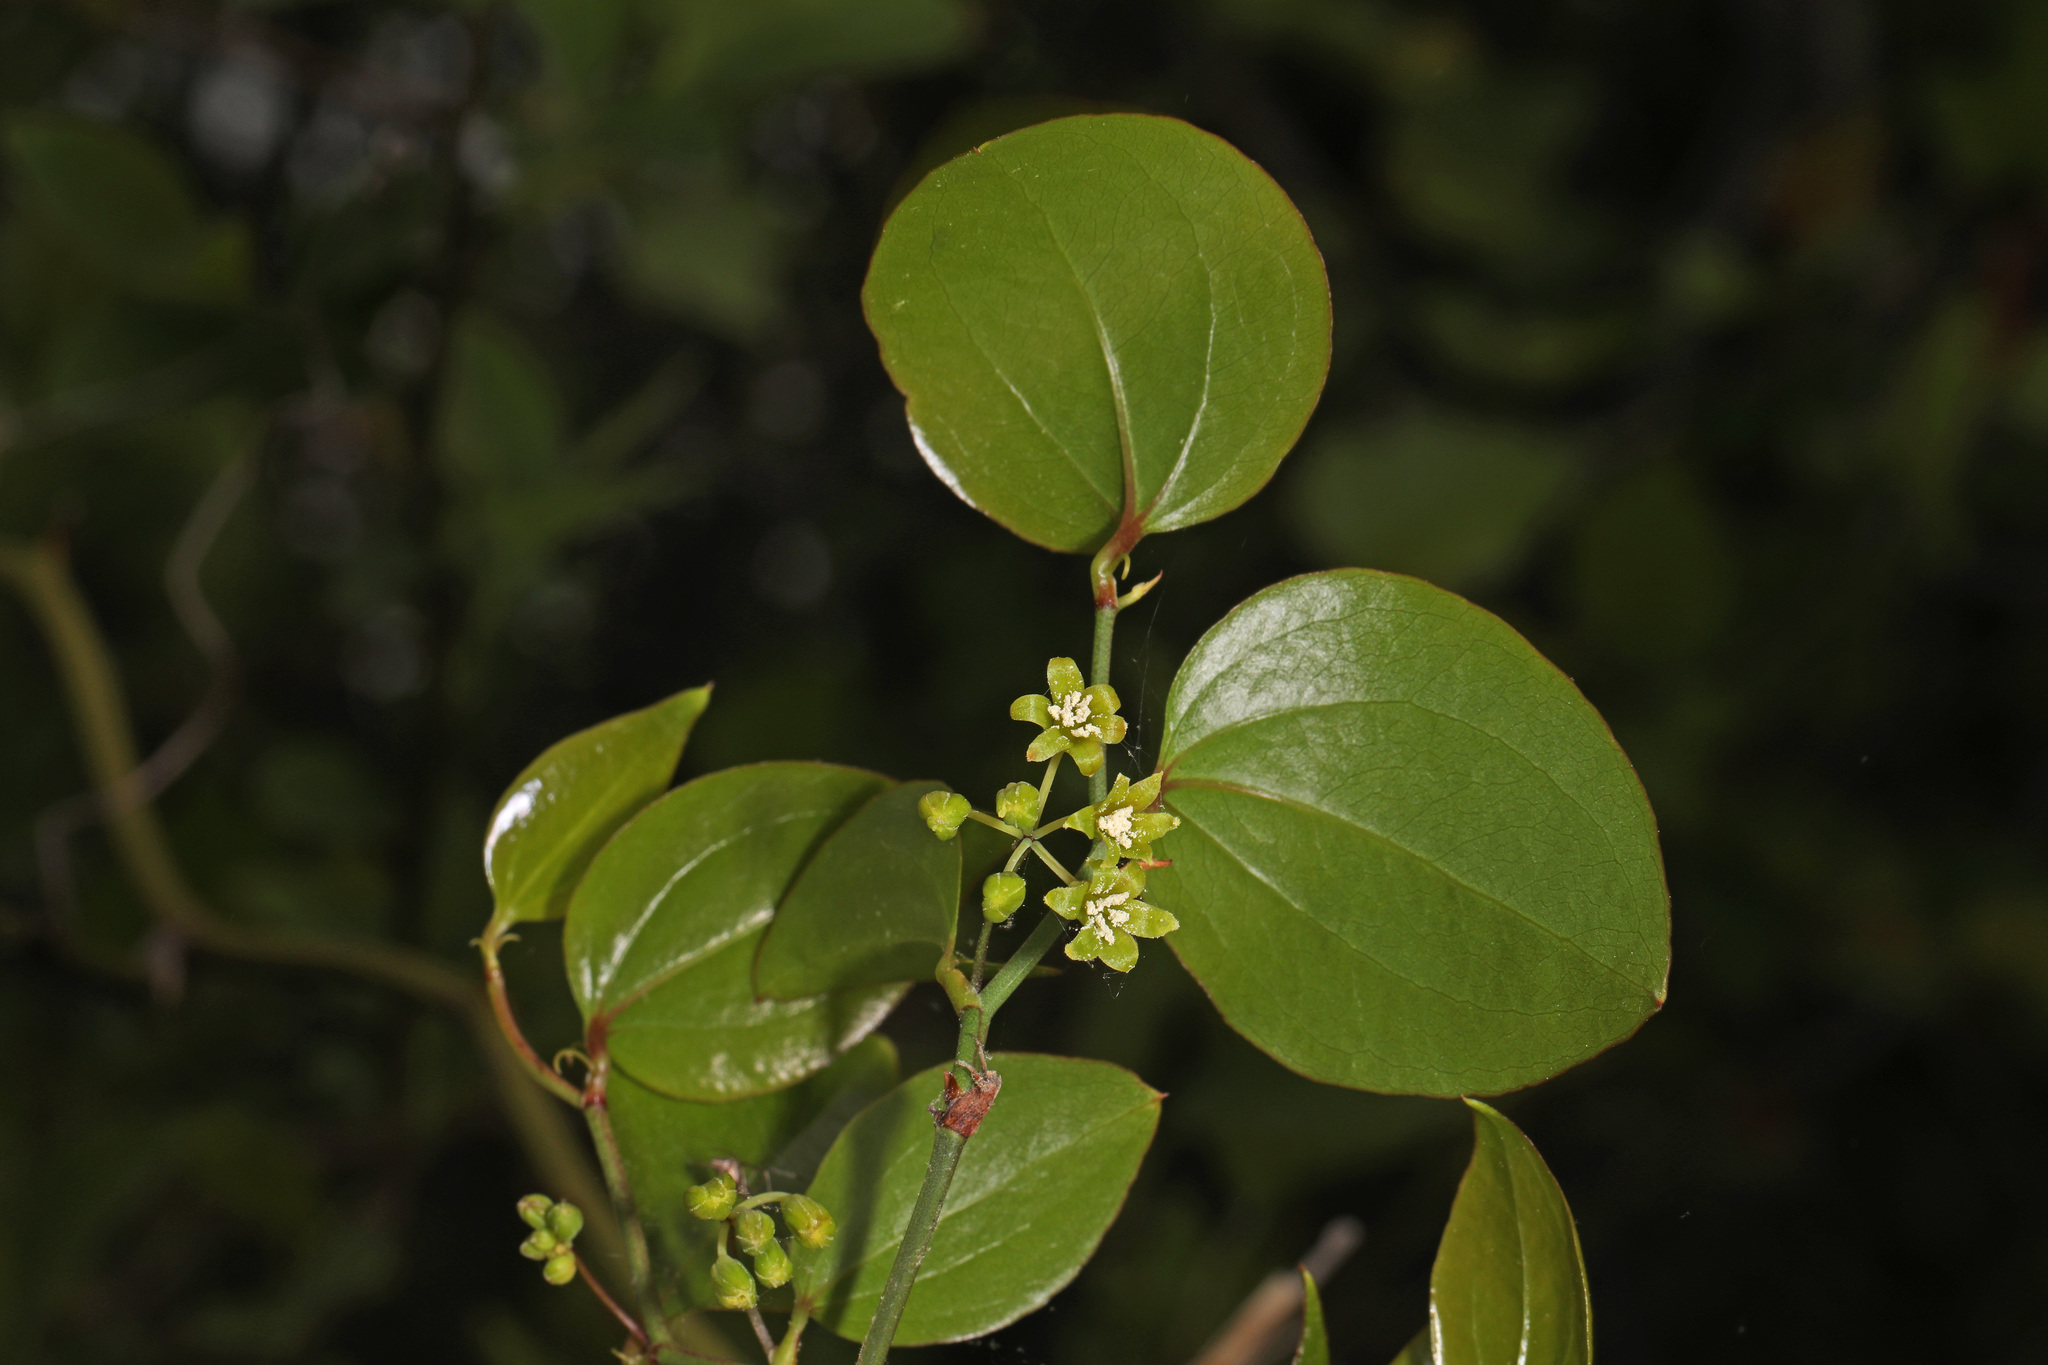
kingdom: Plantae
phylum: Tracheophyta
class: Liliopsida
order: Liliales
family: Smilacaceae
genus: Smilax
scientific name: Smilax rotundifolia
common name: Bullbriar
